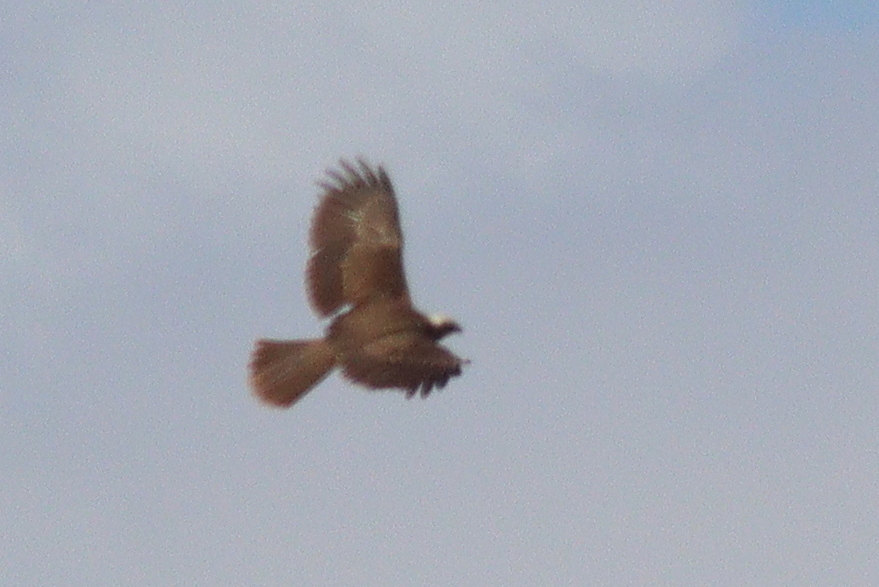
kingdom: Animalia
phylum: Chordata
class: Aves
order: Accipitriformes
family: Accipitridae
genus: Circus
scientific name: Circus aeruginosus
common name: Western marsh harrier
